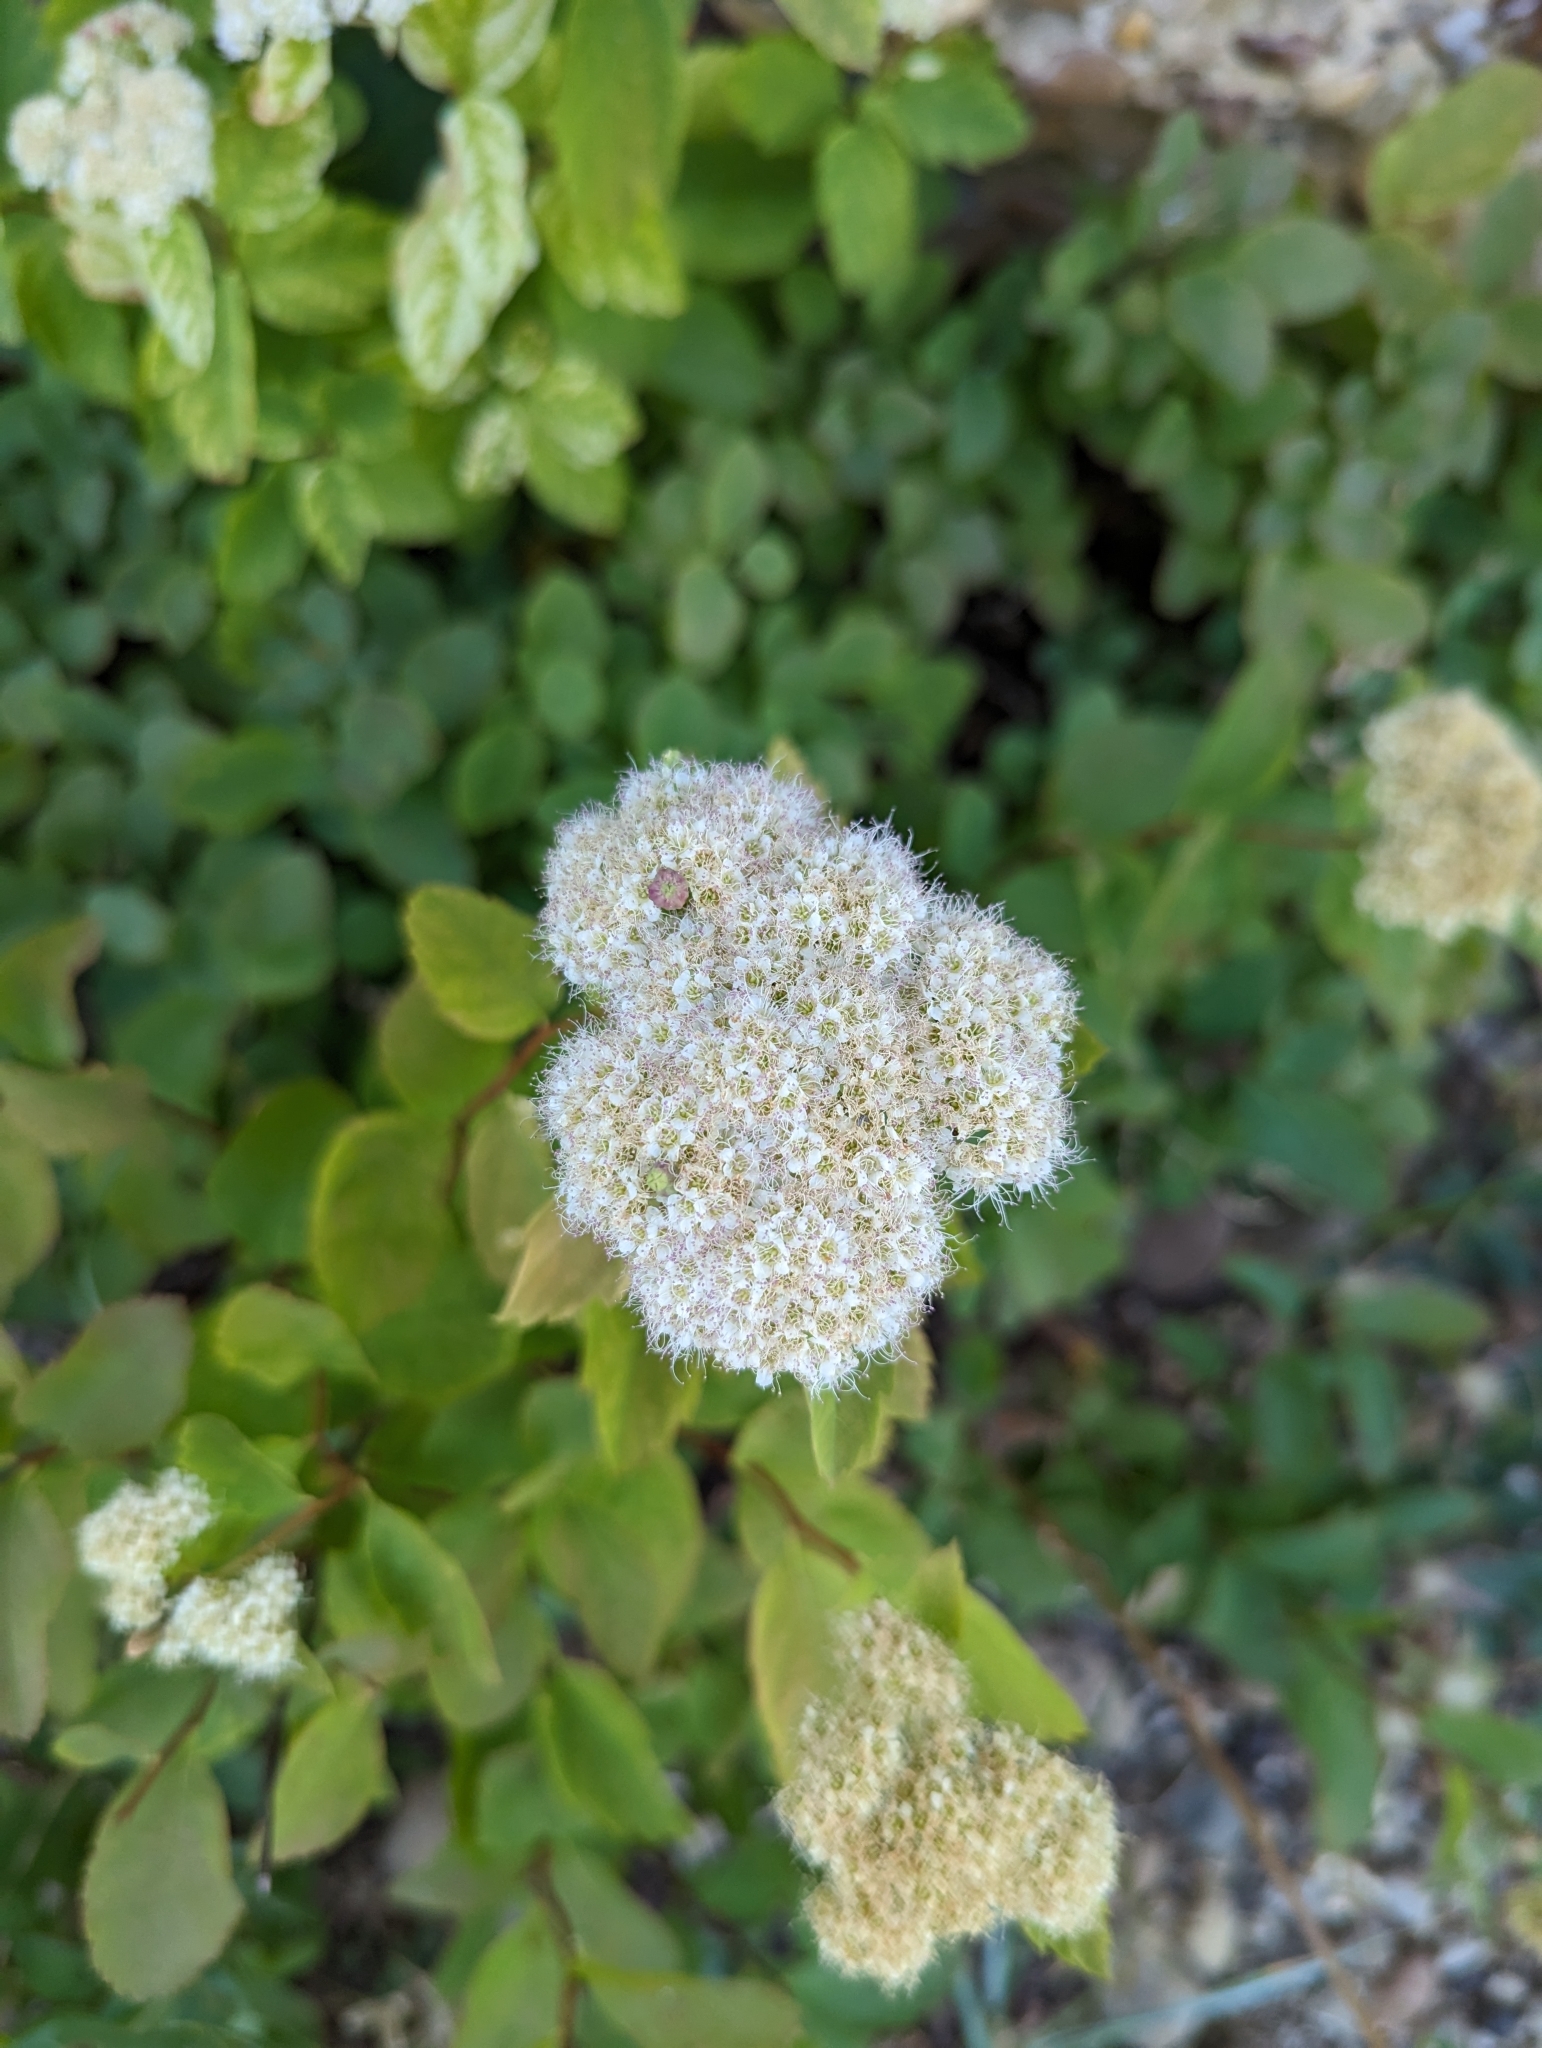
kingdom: Plantae
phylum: Tracheophyta
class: Magnoliopsida
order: Rosales
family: Rosaceae
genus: Spiraea
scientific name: Spiraea lucida
